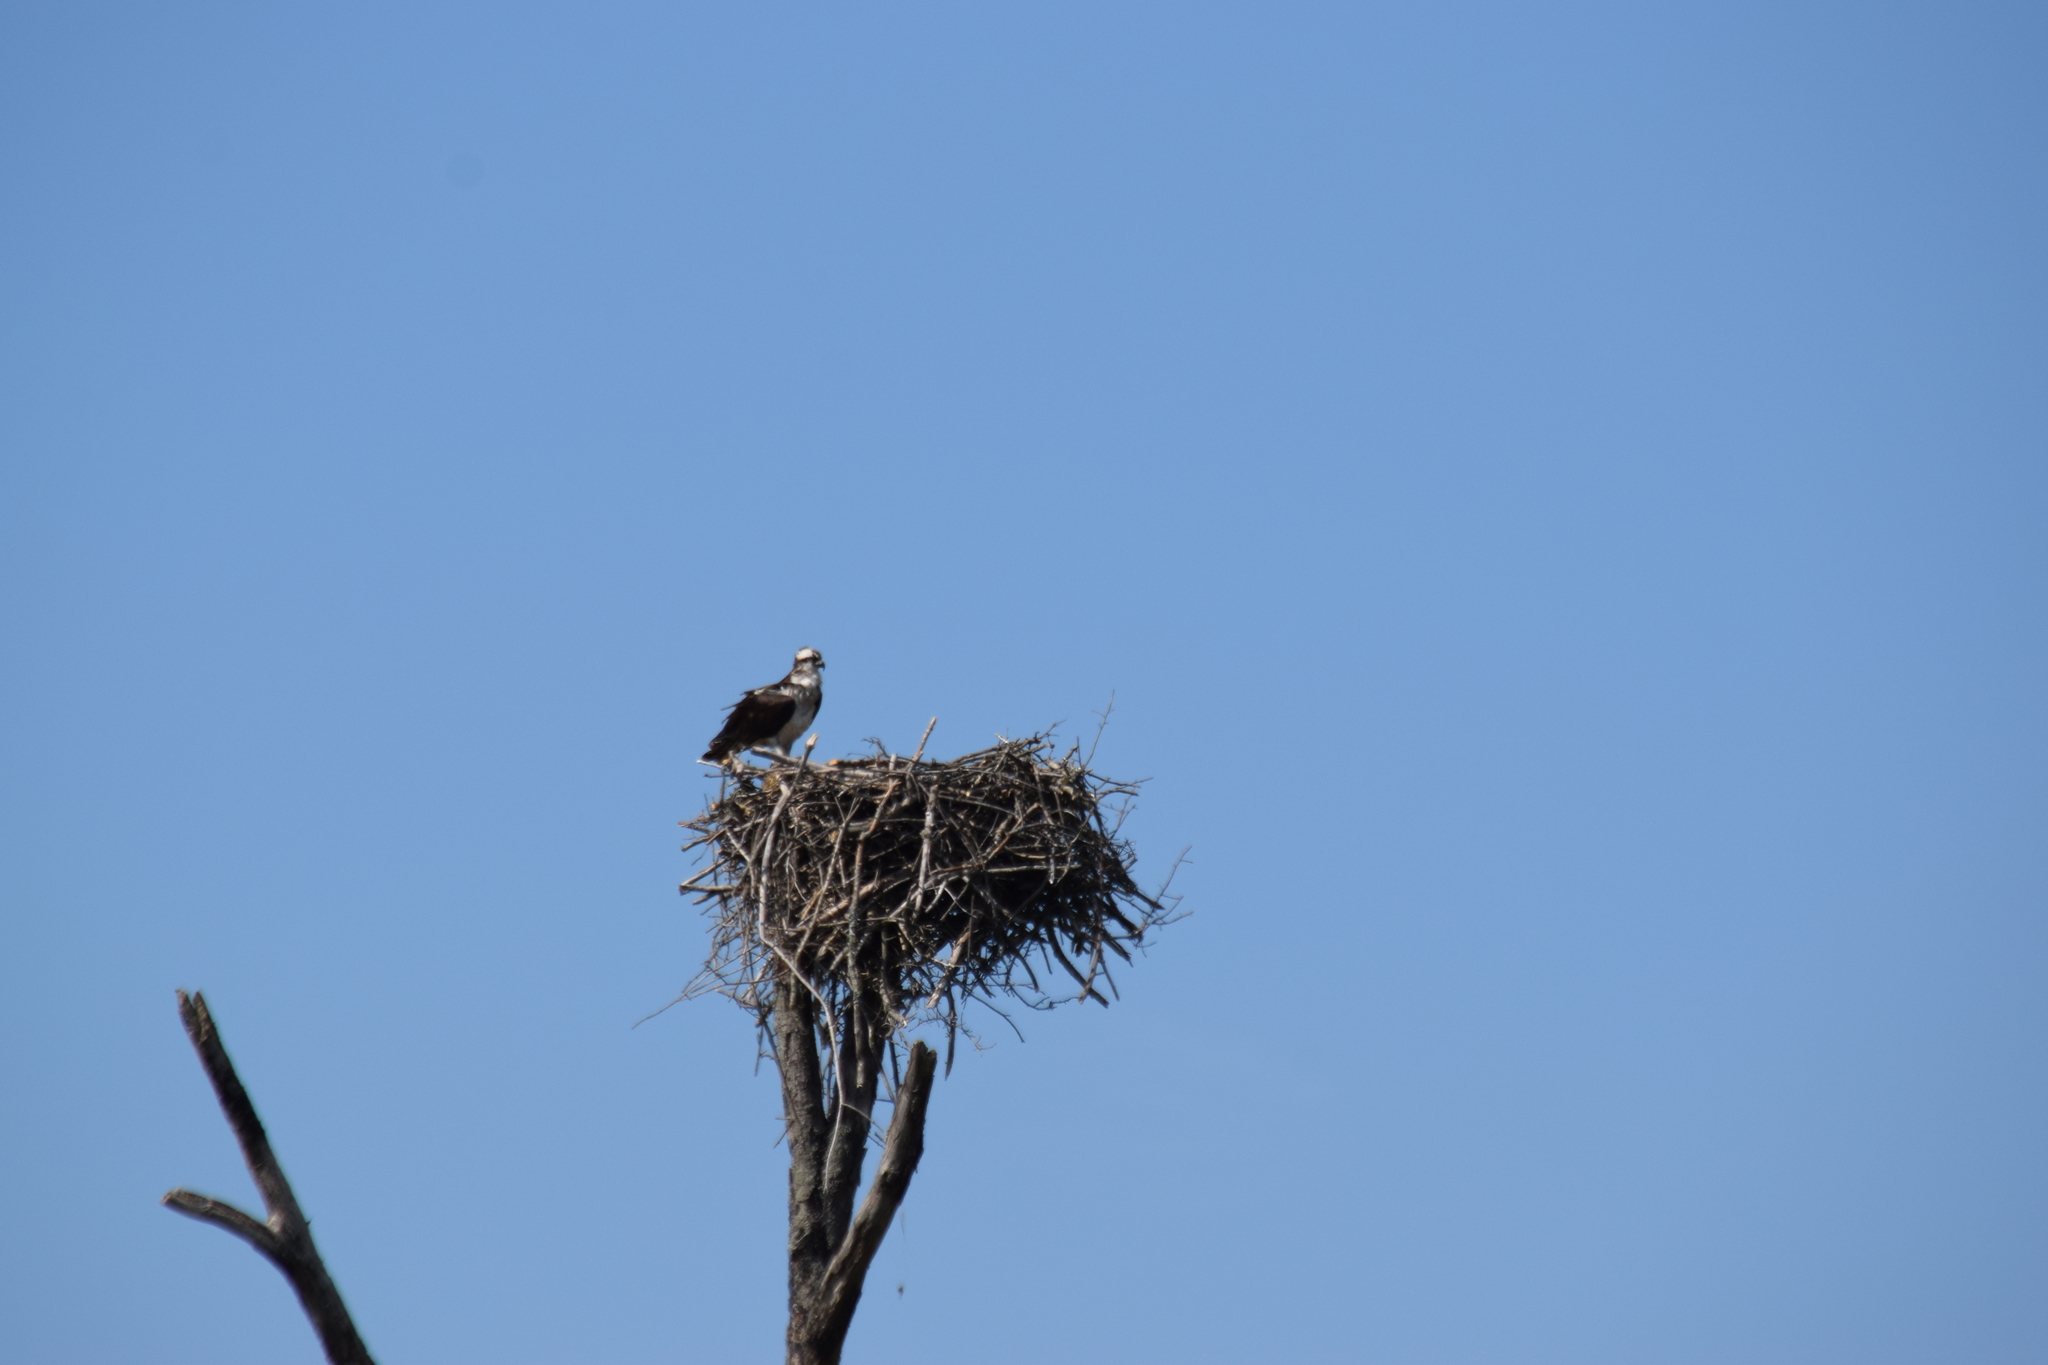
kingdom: Animalia
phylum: Chordata
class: Aves
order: Accipitriformes
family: Pandionidae
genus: Pandion
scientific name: Pandion haliaetus
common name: Osprey
